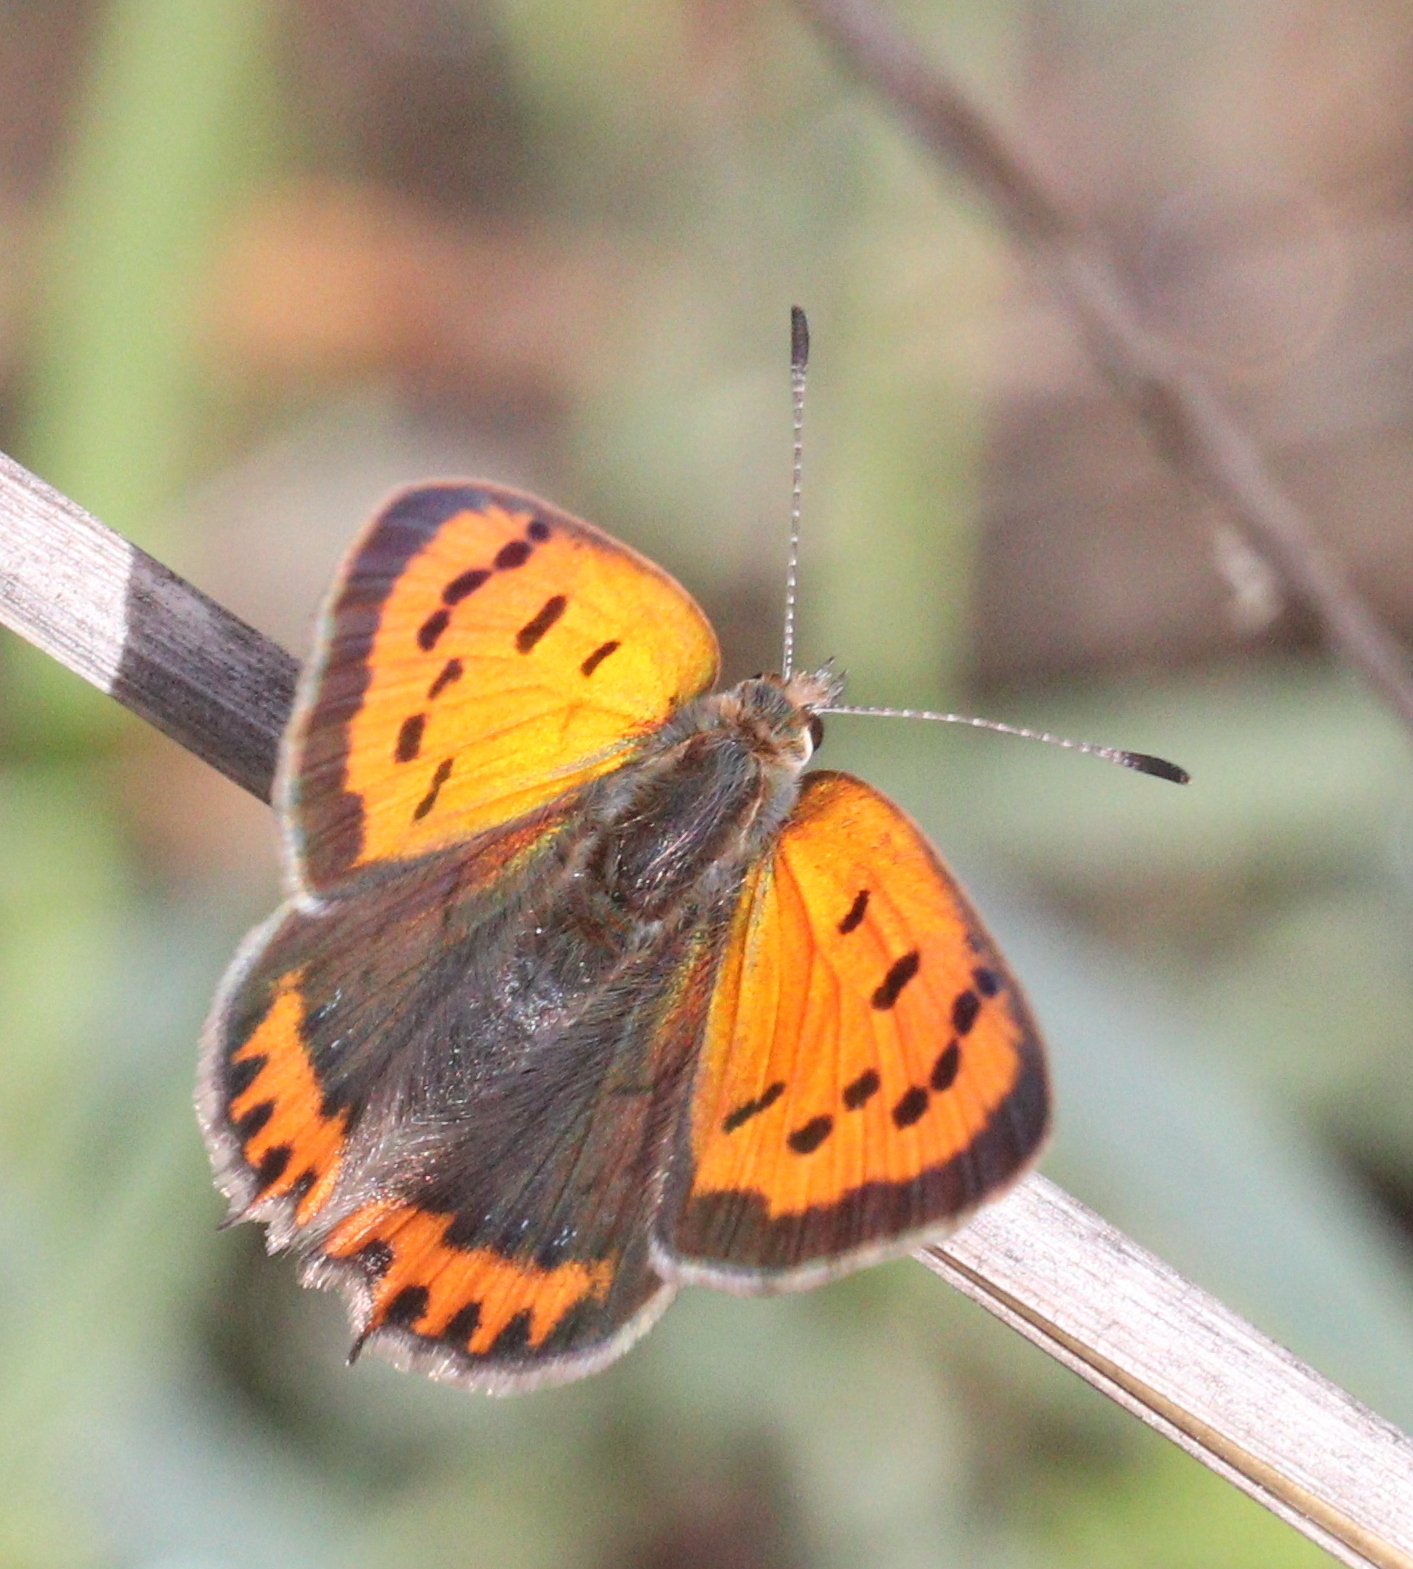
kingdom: Animalia
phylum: Arthropoda
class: Insecta
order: Lepidoptera
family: Lycaenidae
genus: Lycaena
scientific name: Lycaena phlaeas
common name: Small copper
